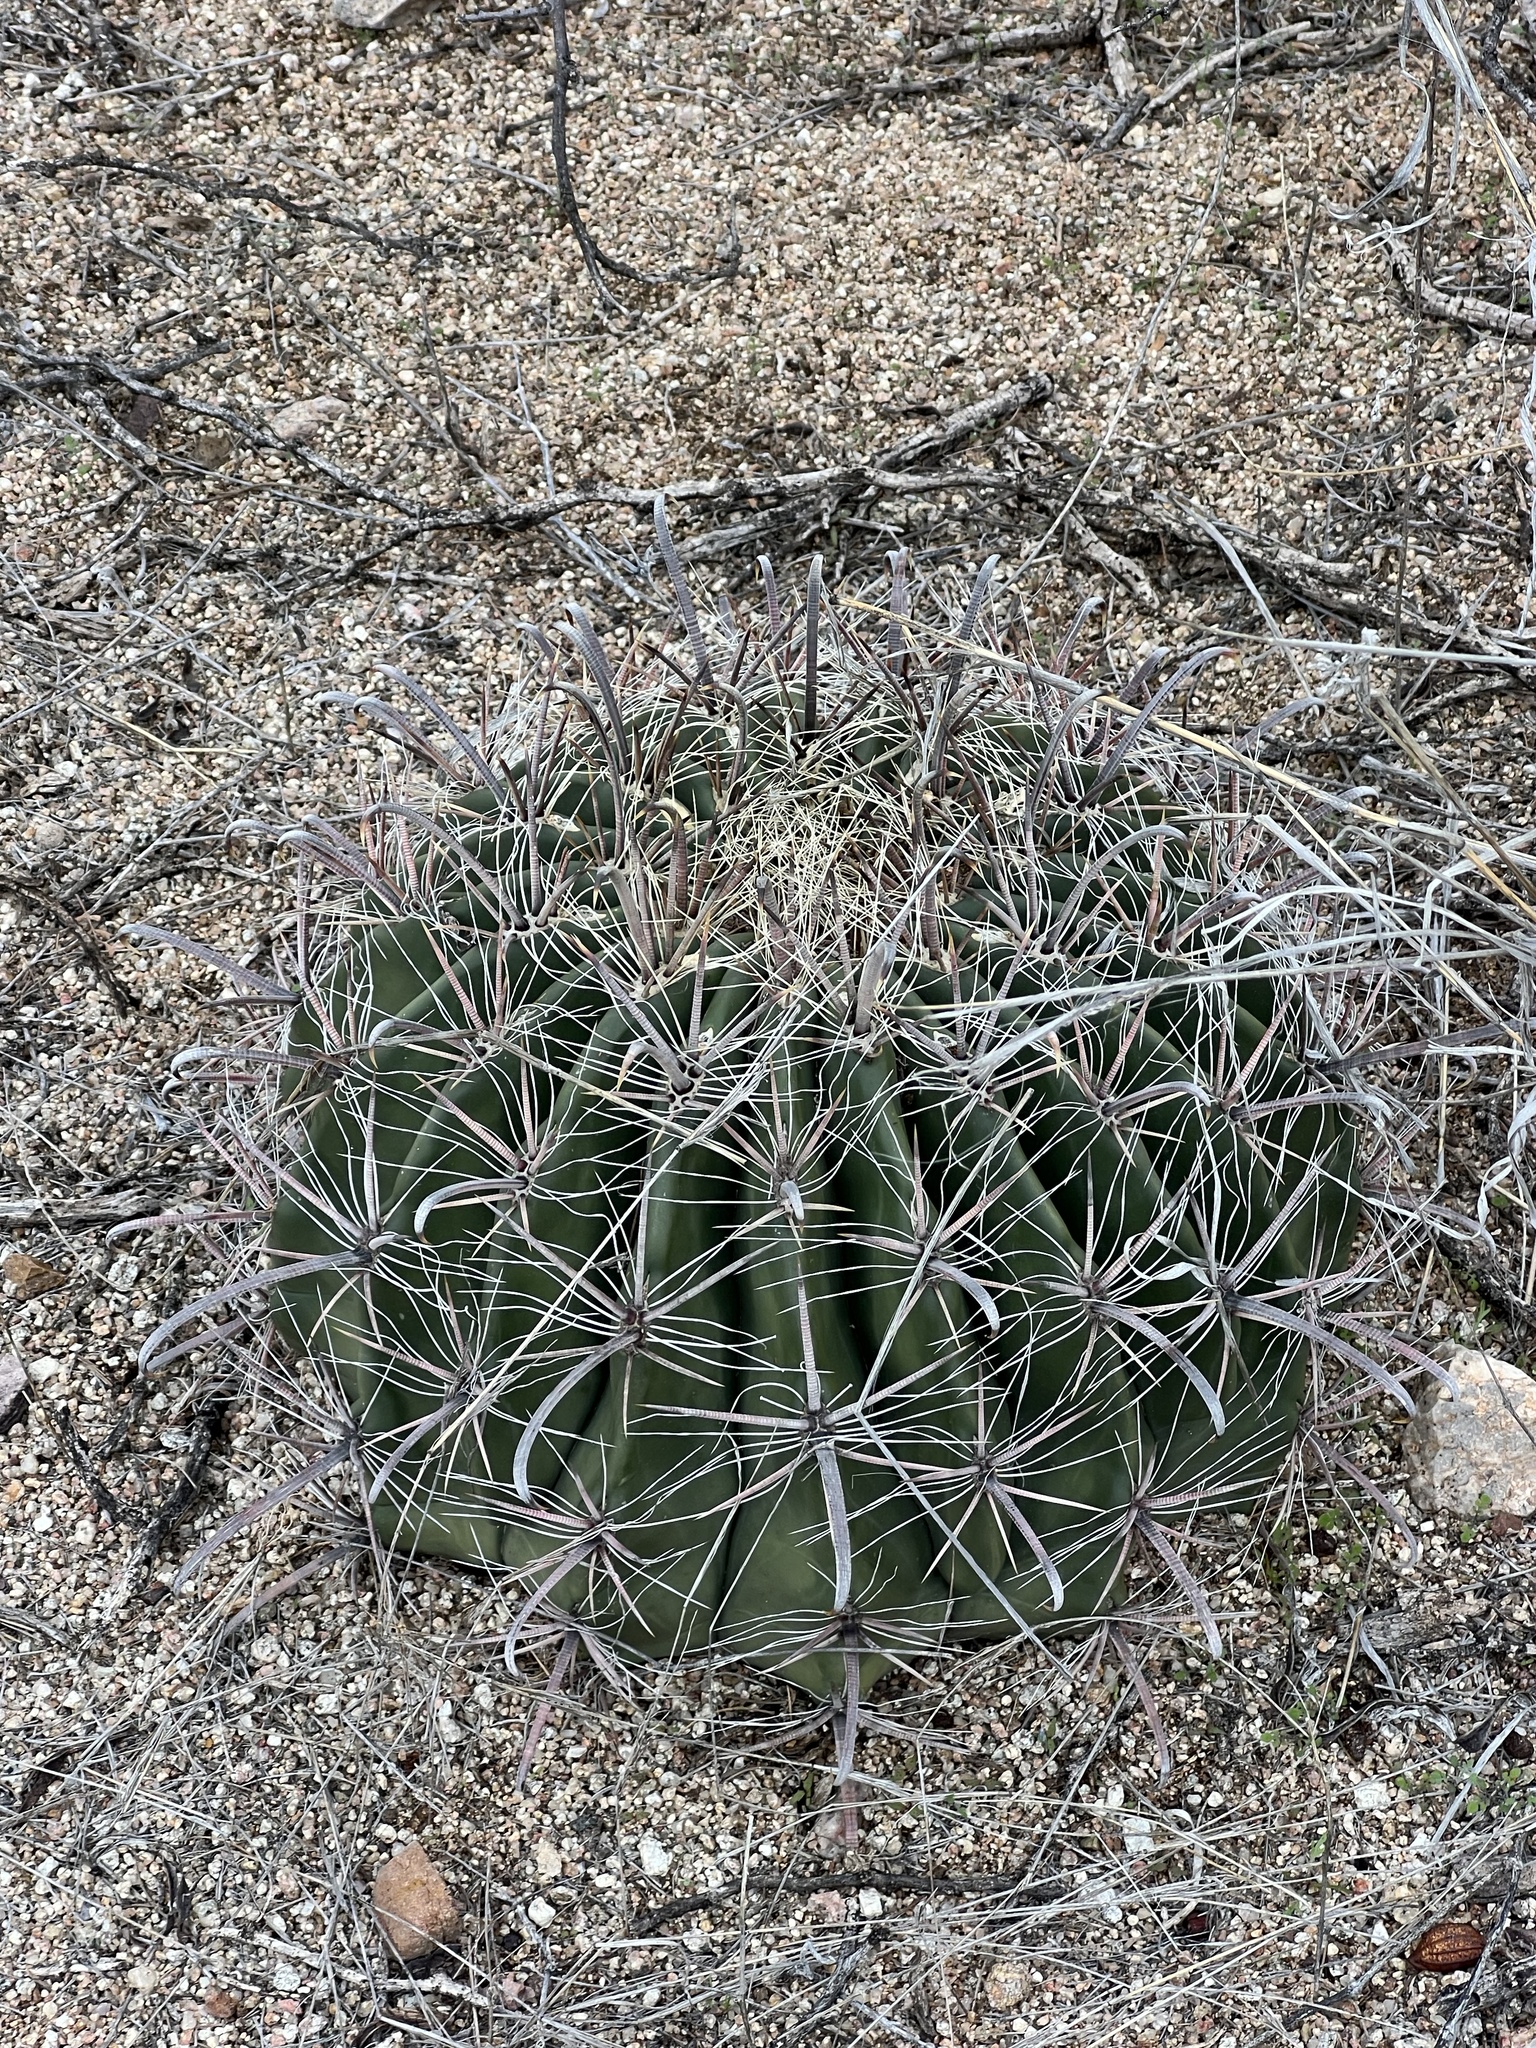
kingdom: Plantae
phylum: Tracheophyta
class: Magnoliopsida
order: Caryophyllales
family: Cactaceae
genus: Ferocactus
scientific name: Ferocactus wislizeni
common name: Candy barrel cactus
